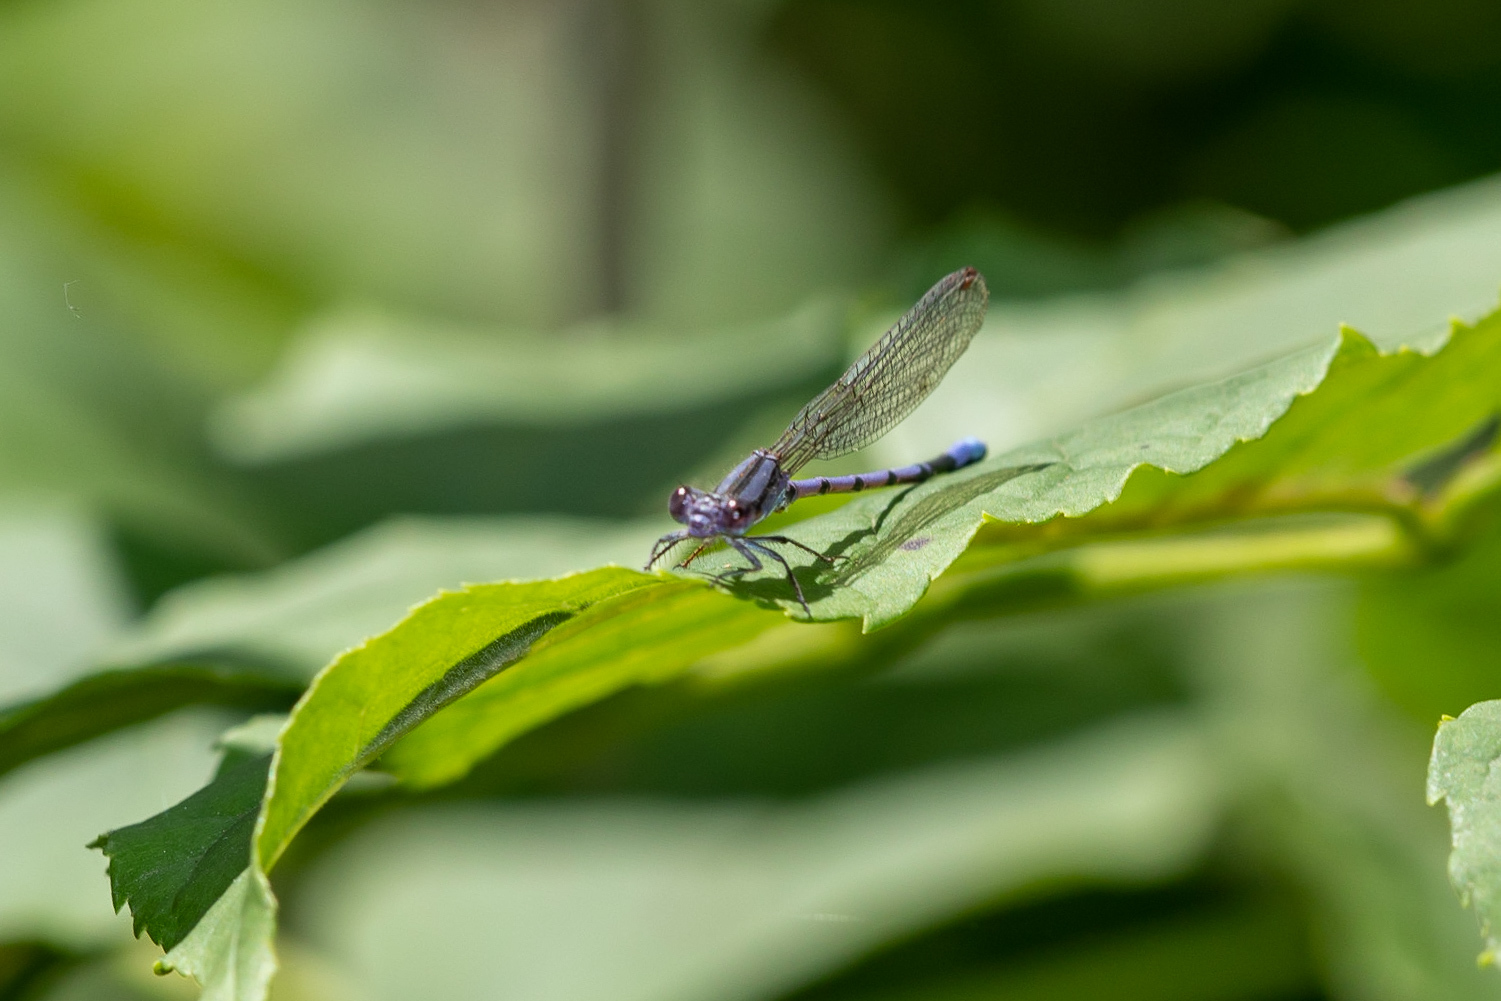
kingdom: Animalia
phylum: Arthropoda
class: Insecta
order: Odonata
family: Coenagrionidae
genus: Argia
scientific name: Argia fumipennis
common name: Variable dancer
